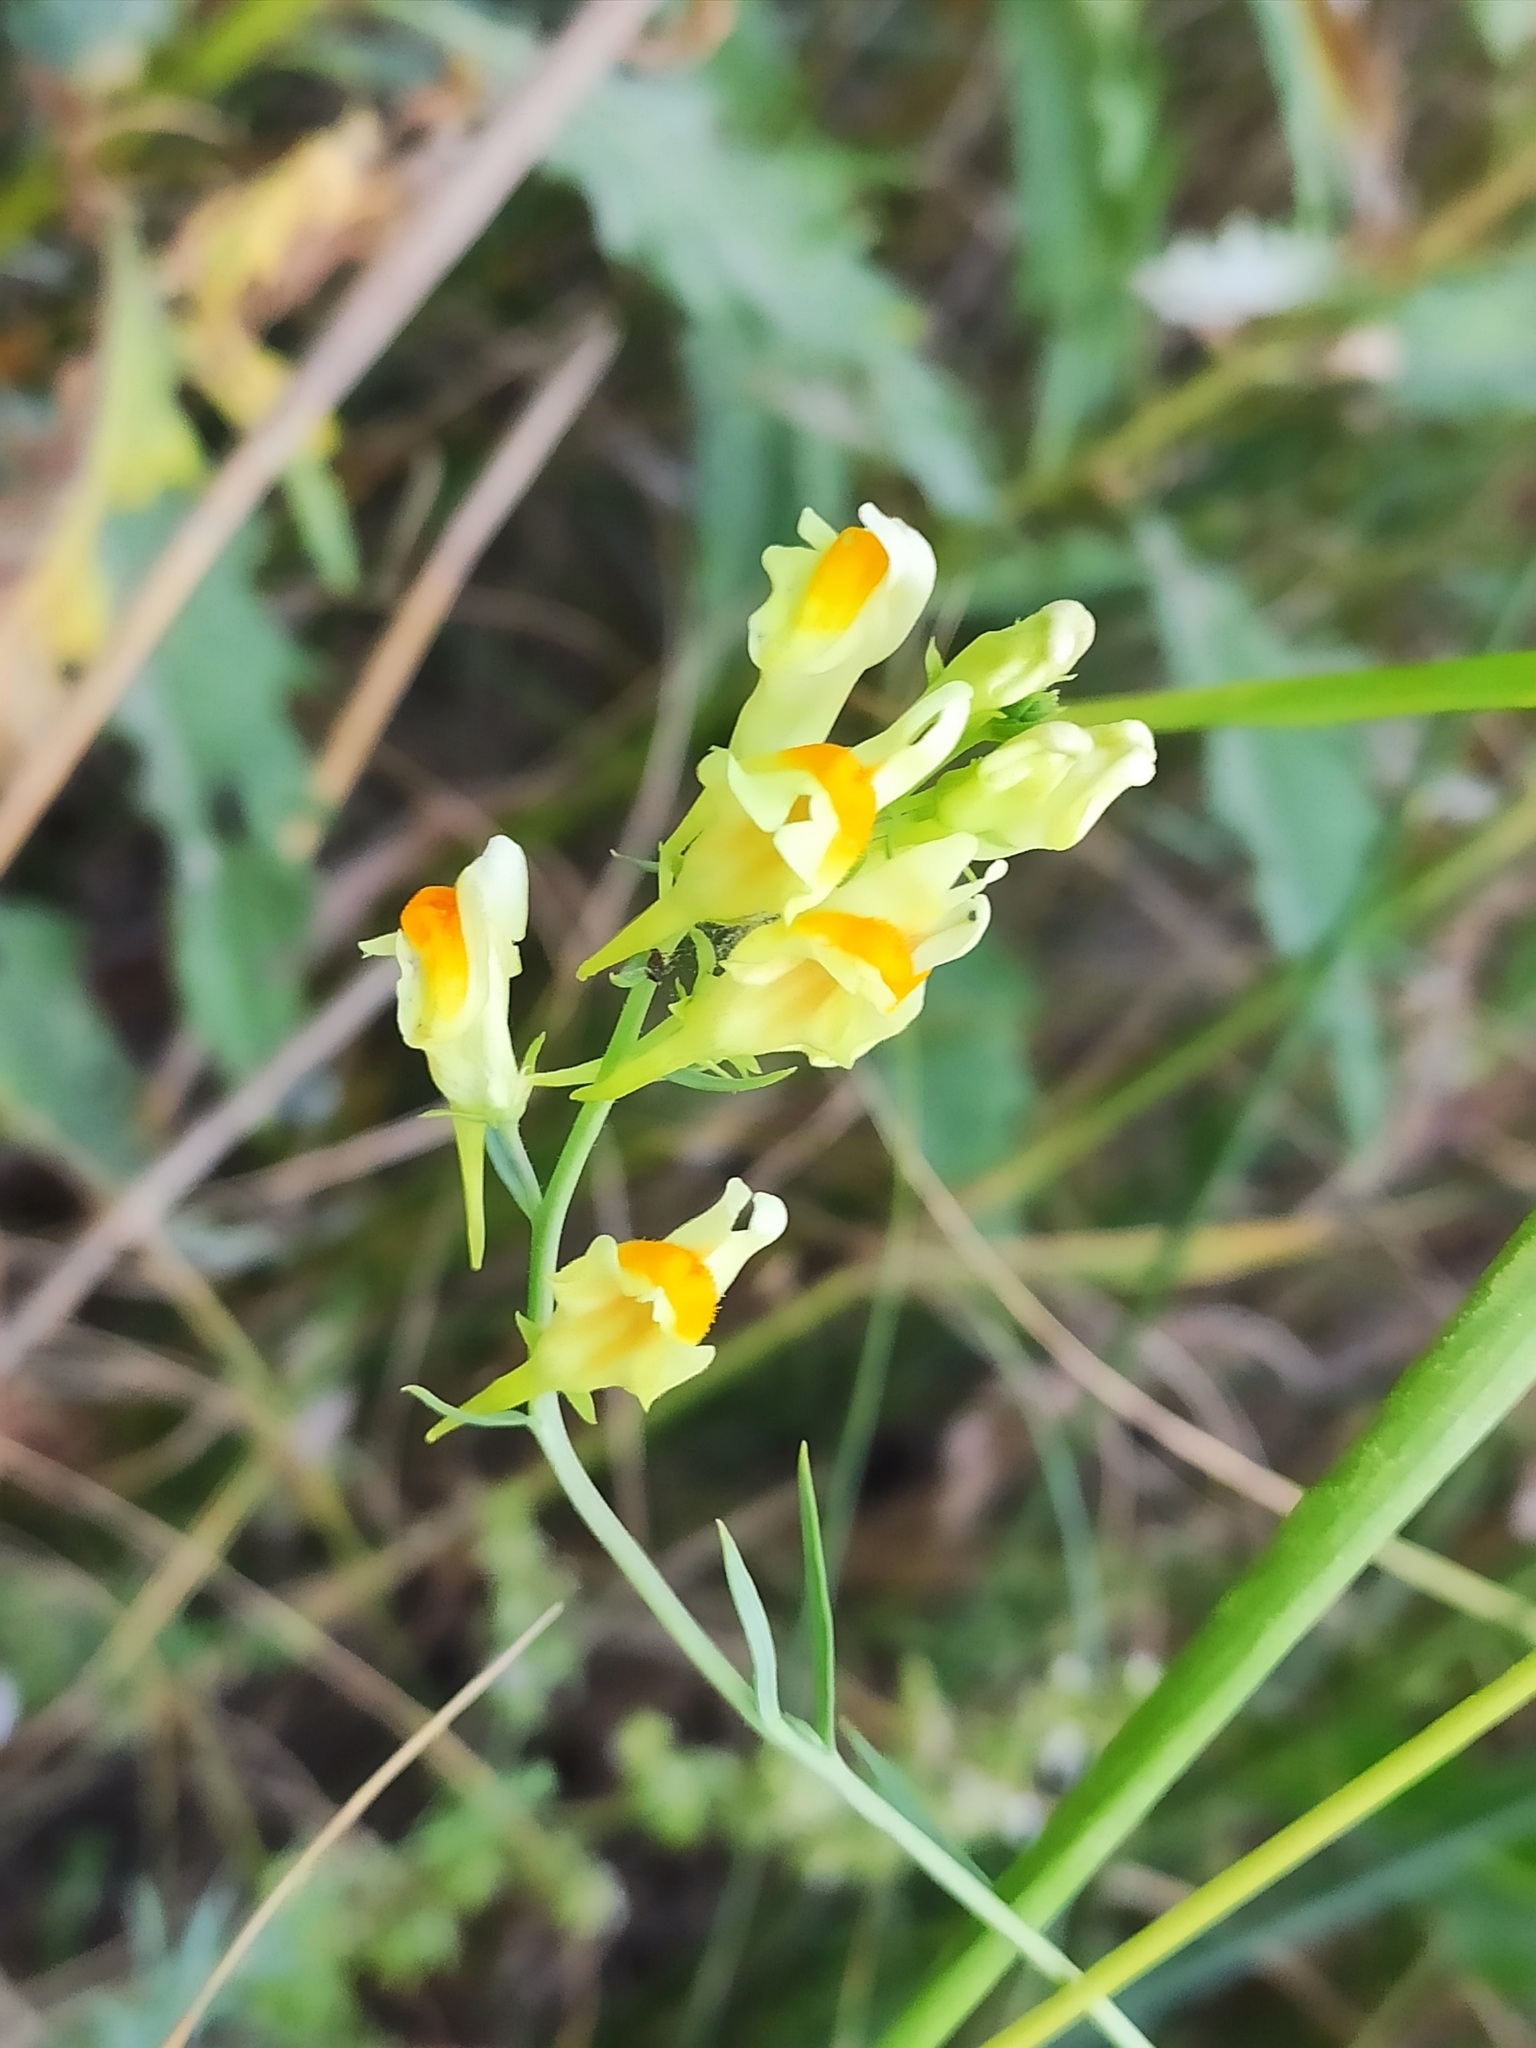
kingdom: Plantae
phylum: Tracheophyta
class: Magnoliopsida
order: Lamiales
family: Plantaginaceae
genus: Linaria
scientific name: Linaria vulgaris
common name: Butter and eggs
